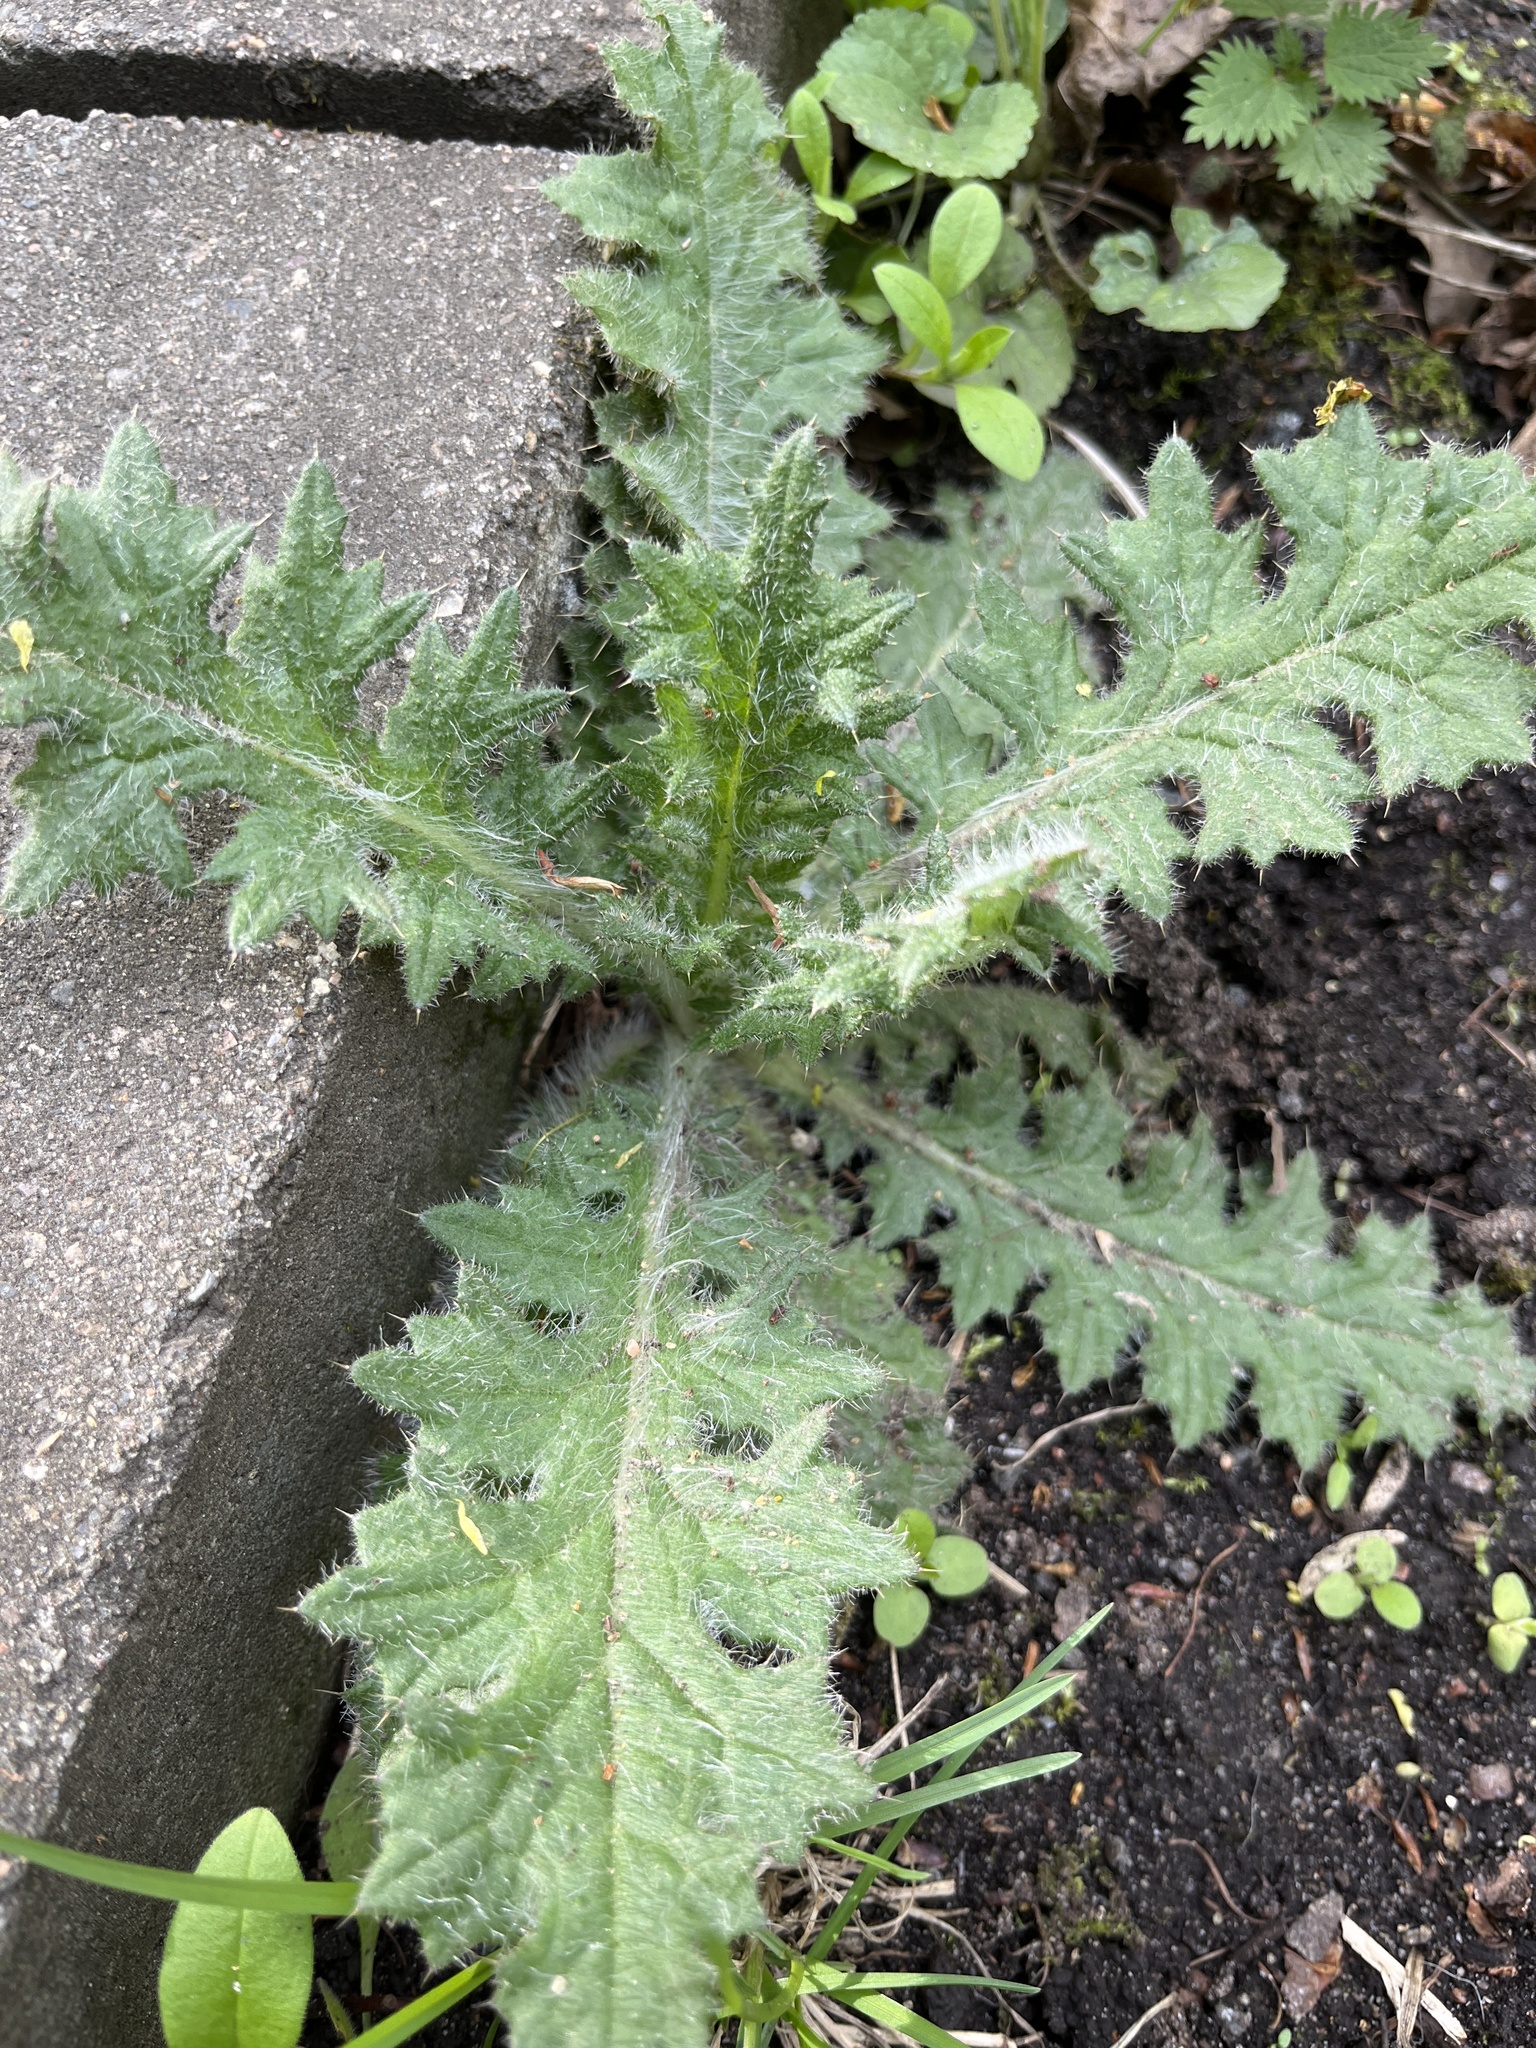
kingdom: Plantae
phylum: Tracheophyta
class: Magnoliopsida
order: Asterales
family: Asteraceae
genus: Cirsium
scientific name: Cirsium vulgare
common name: Bull thistle
